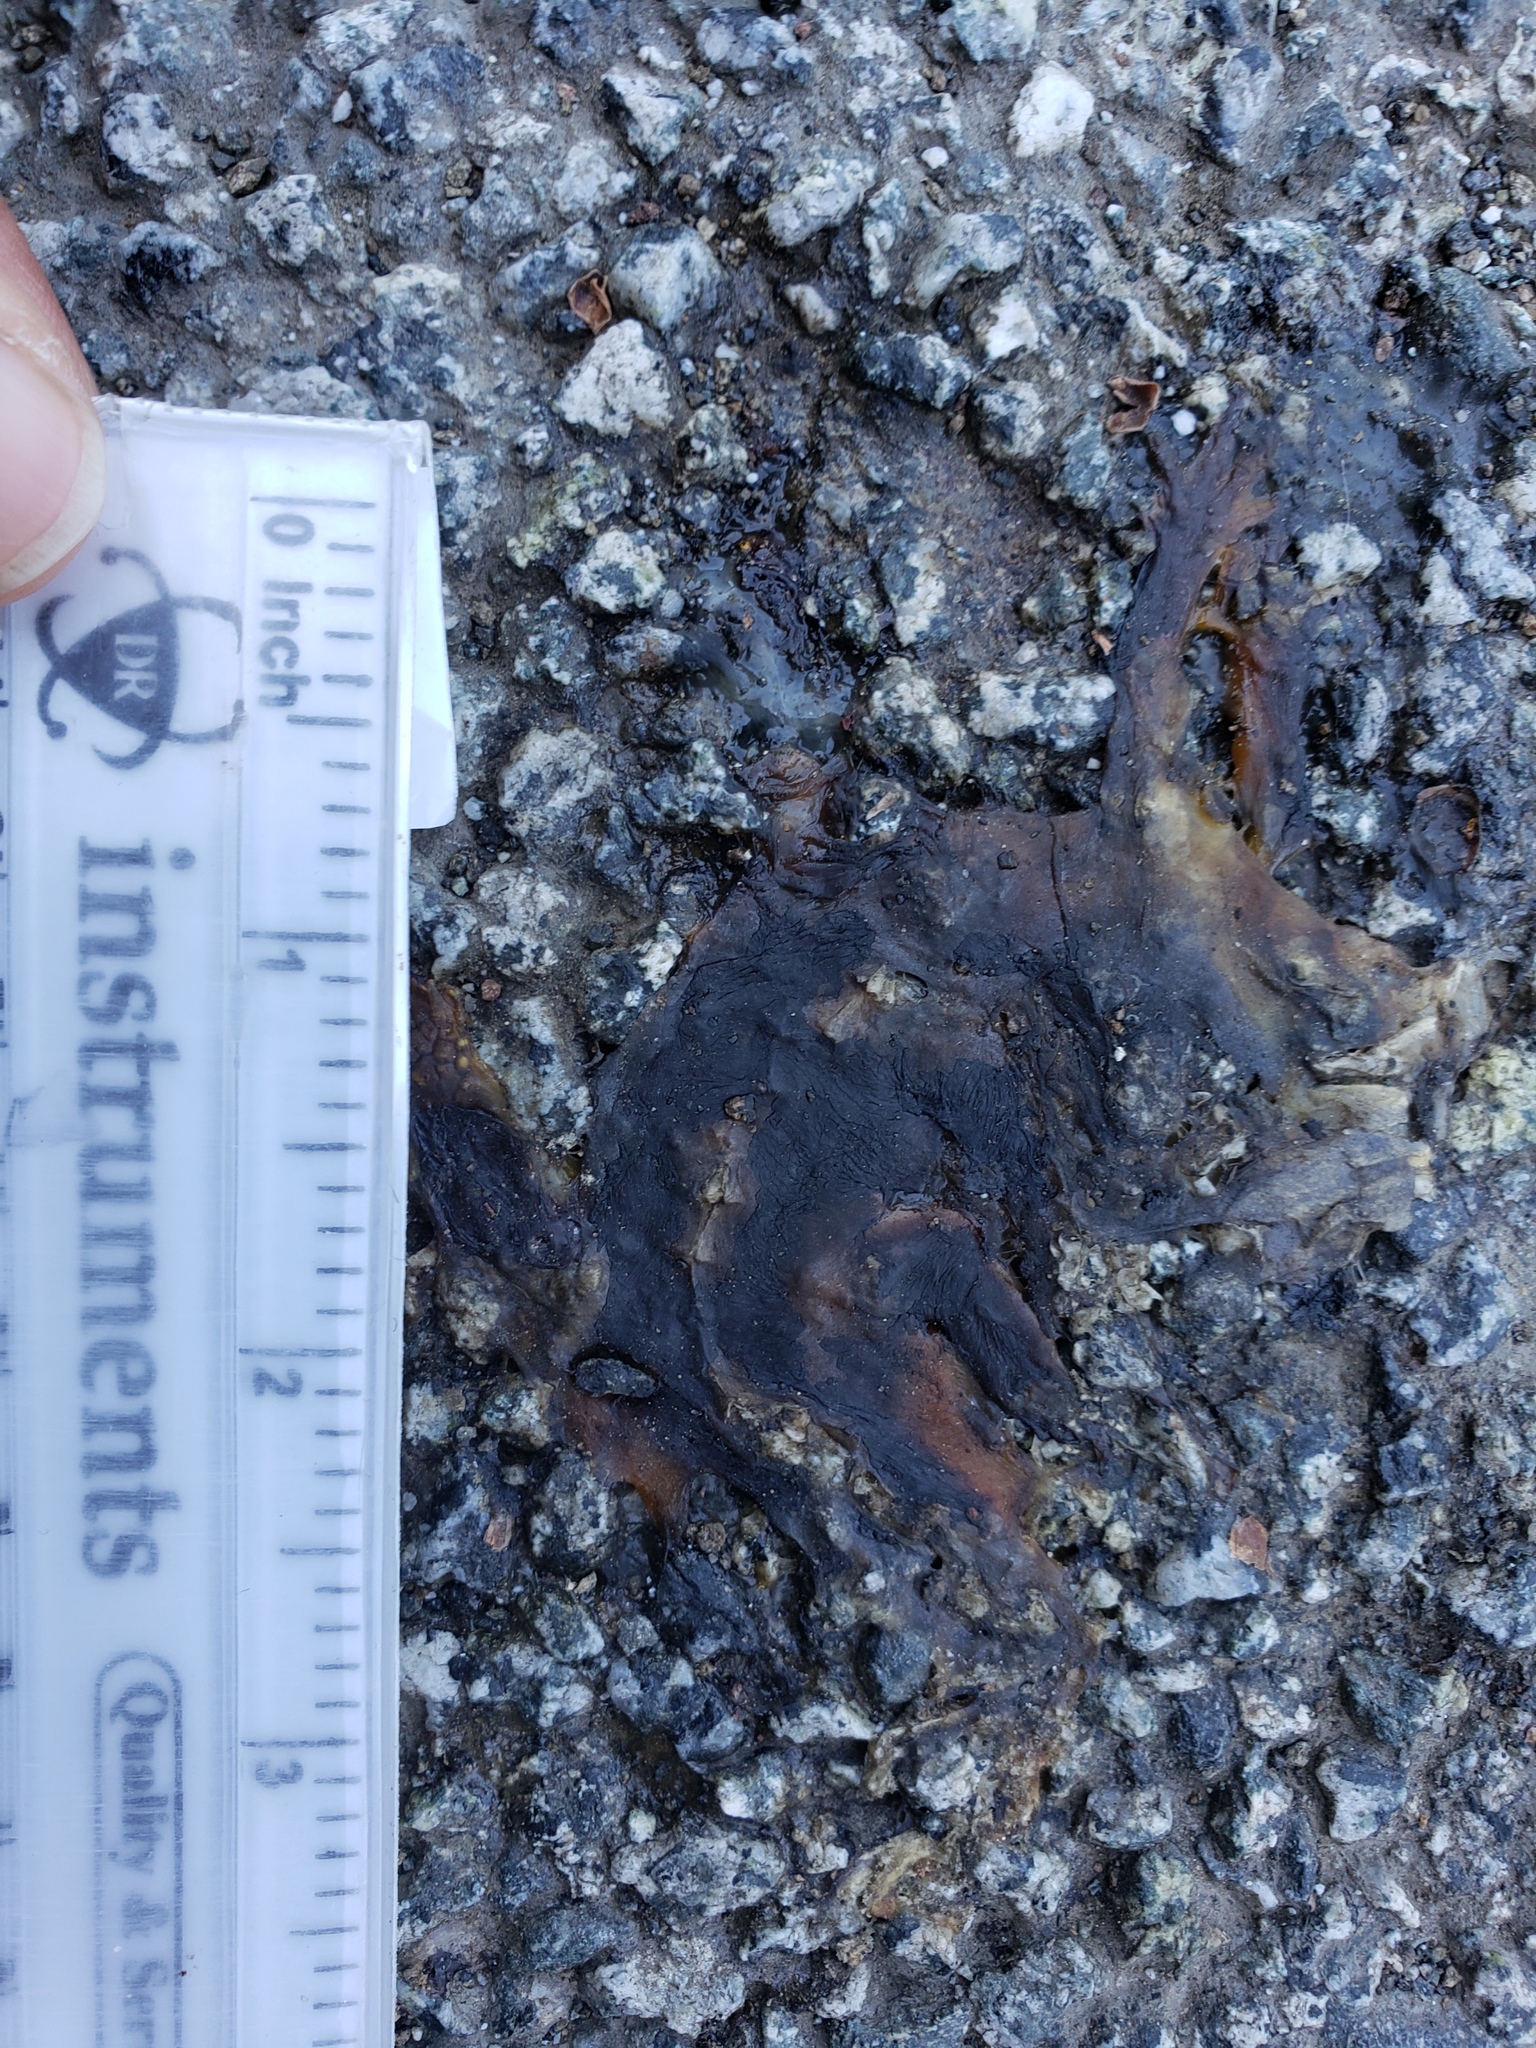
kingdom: Animalia
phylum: Chordata
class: Amphibia
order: Caudata
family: Salamandridae
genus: Taricha
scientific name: Taricha
